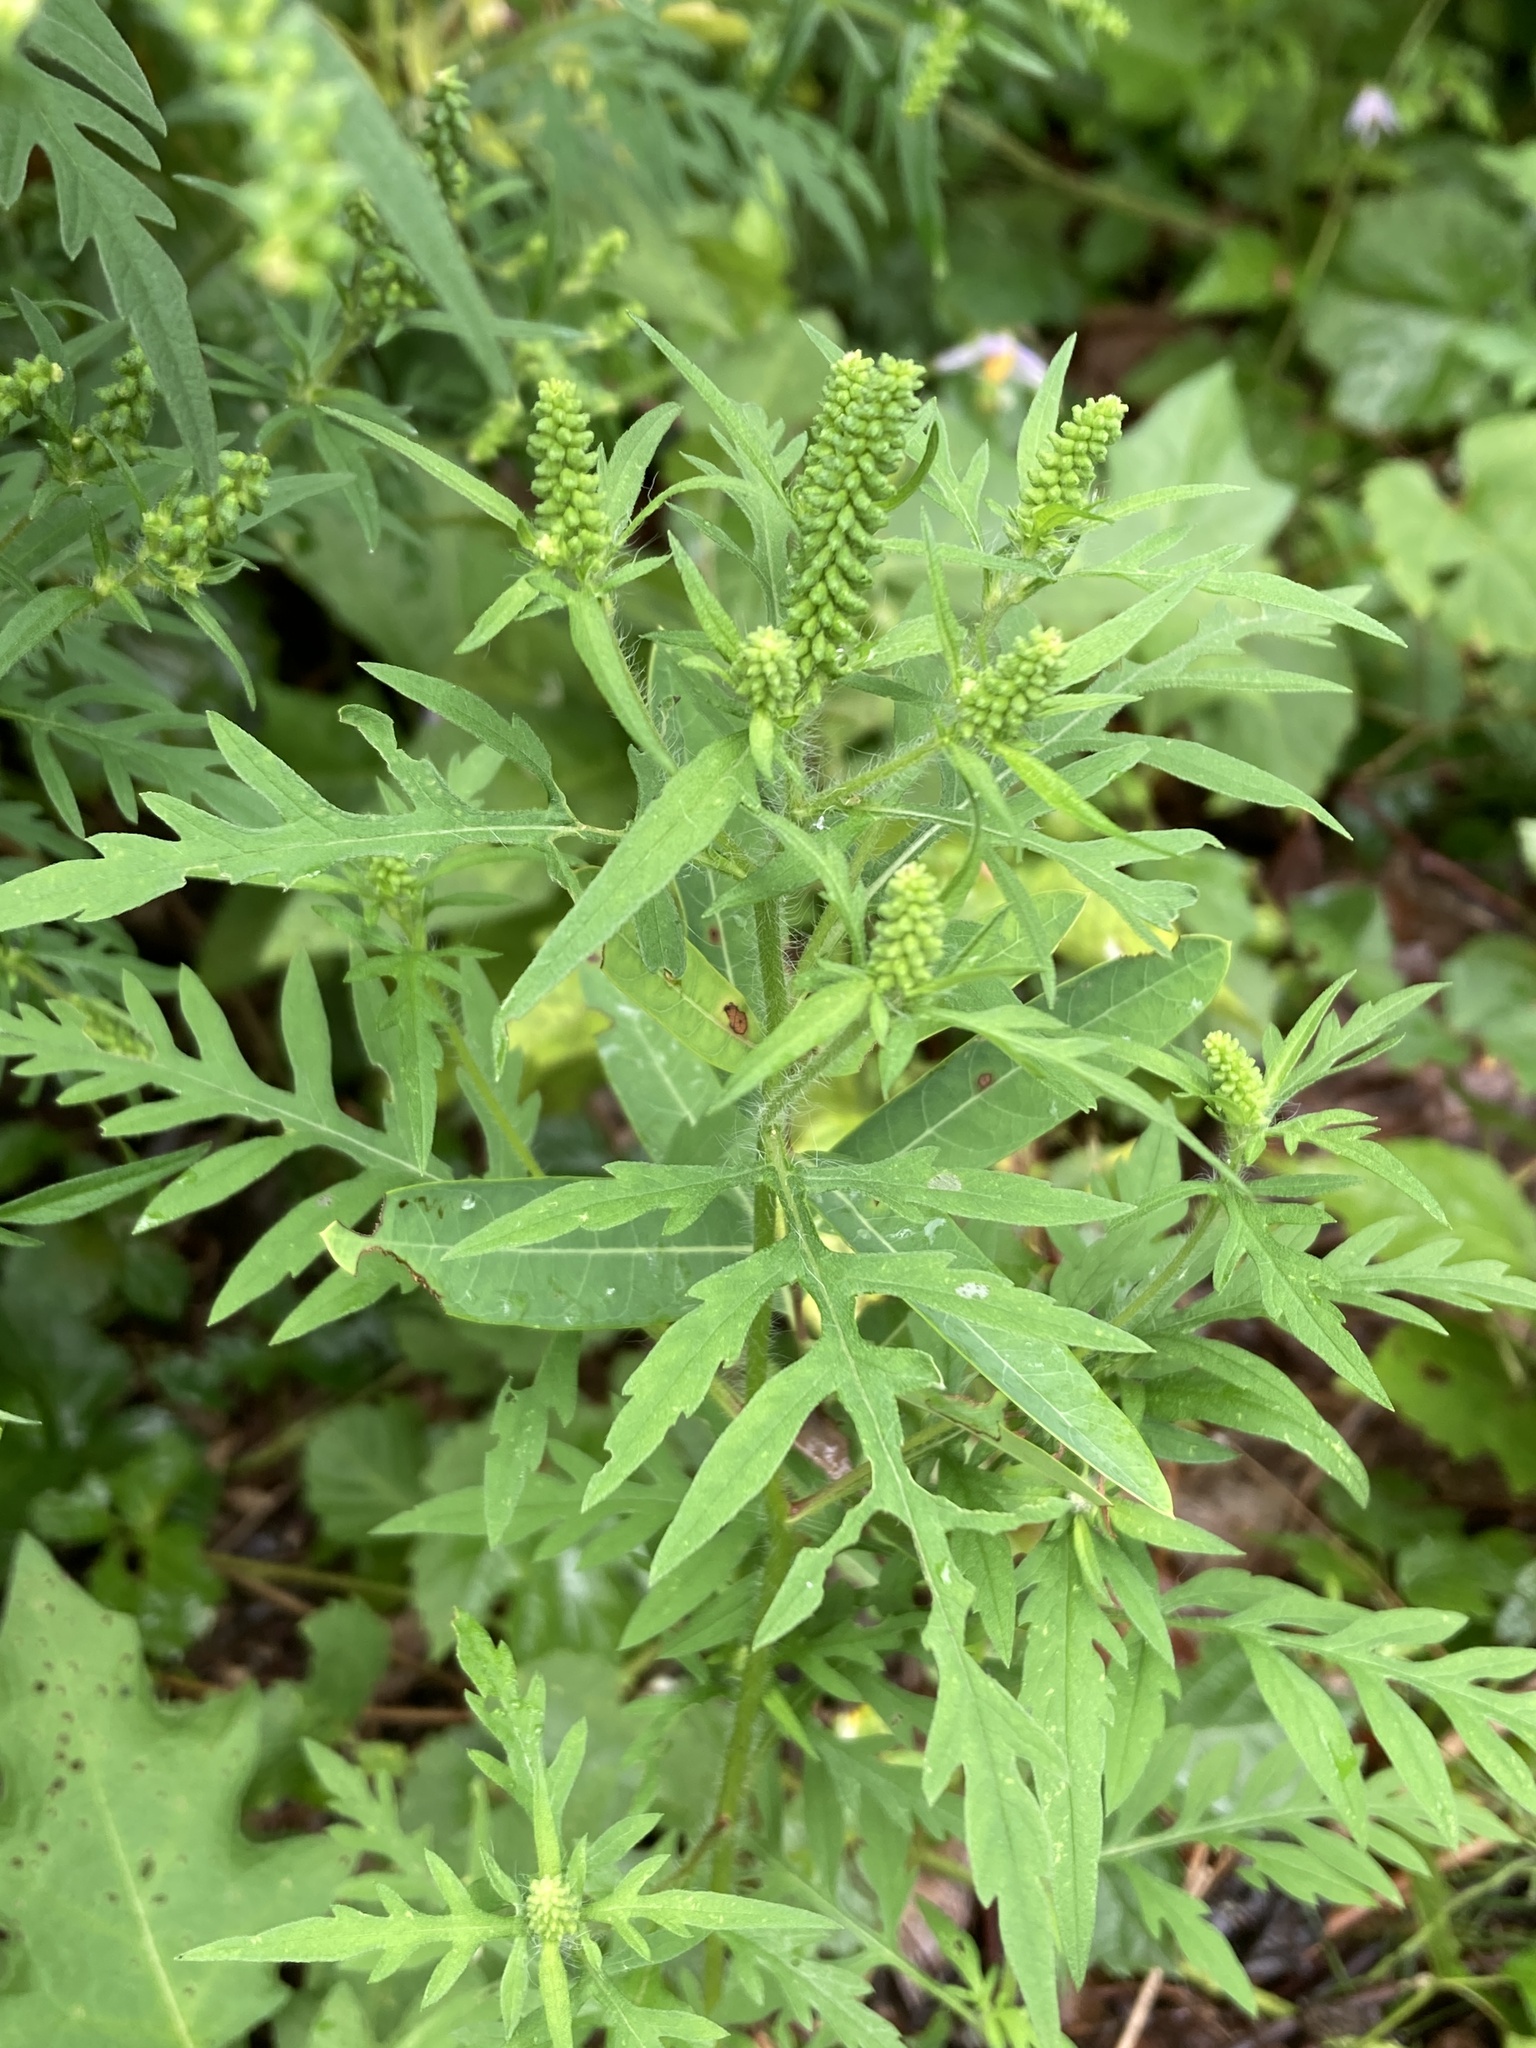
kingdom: Plantae
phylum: Tracheophyta
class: Magnoliopsida
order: Asterales
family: Asteraceae
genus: Ambrosia
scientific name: Ambrosia artemisiifolia
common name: Annual ragweed
